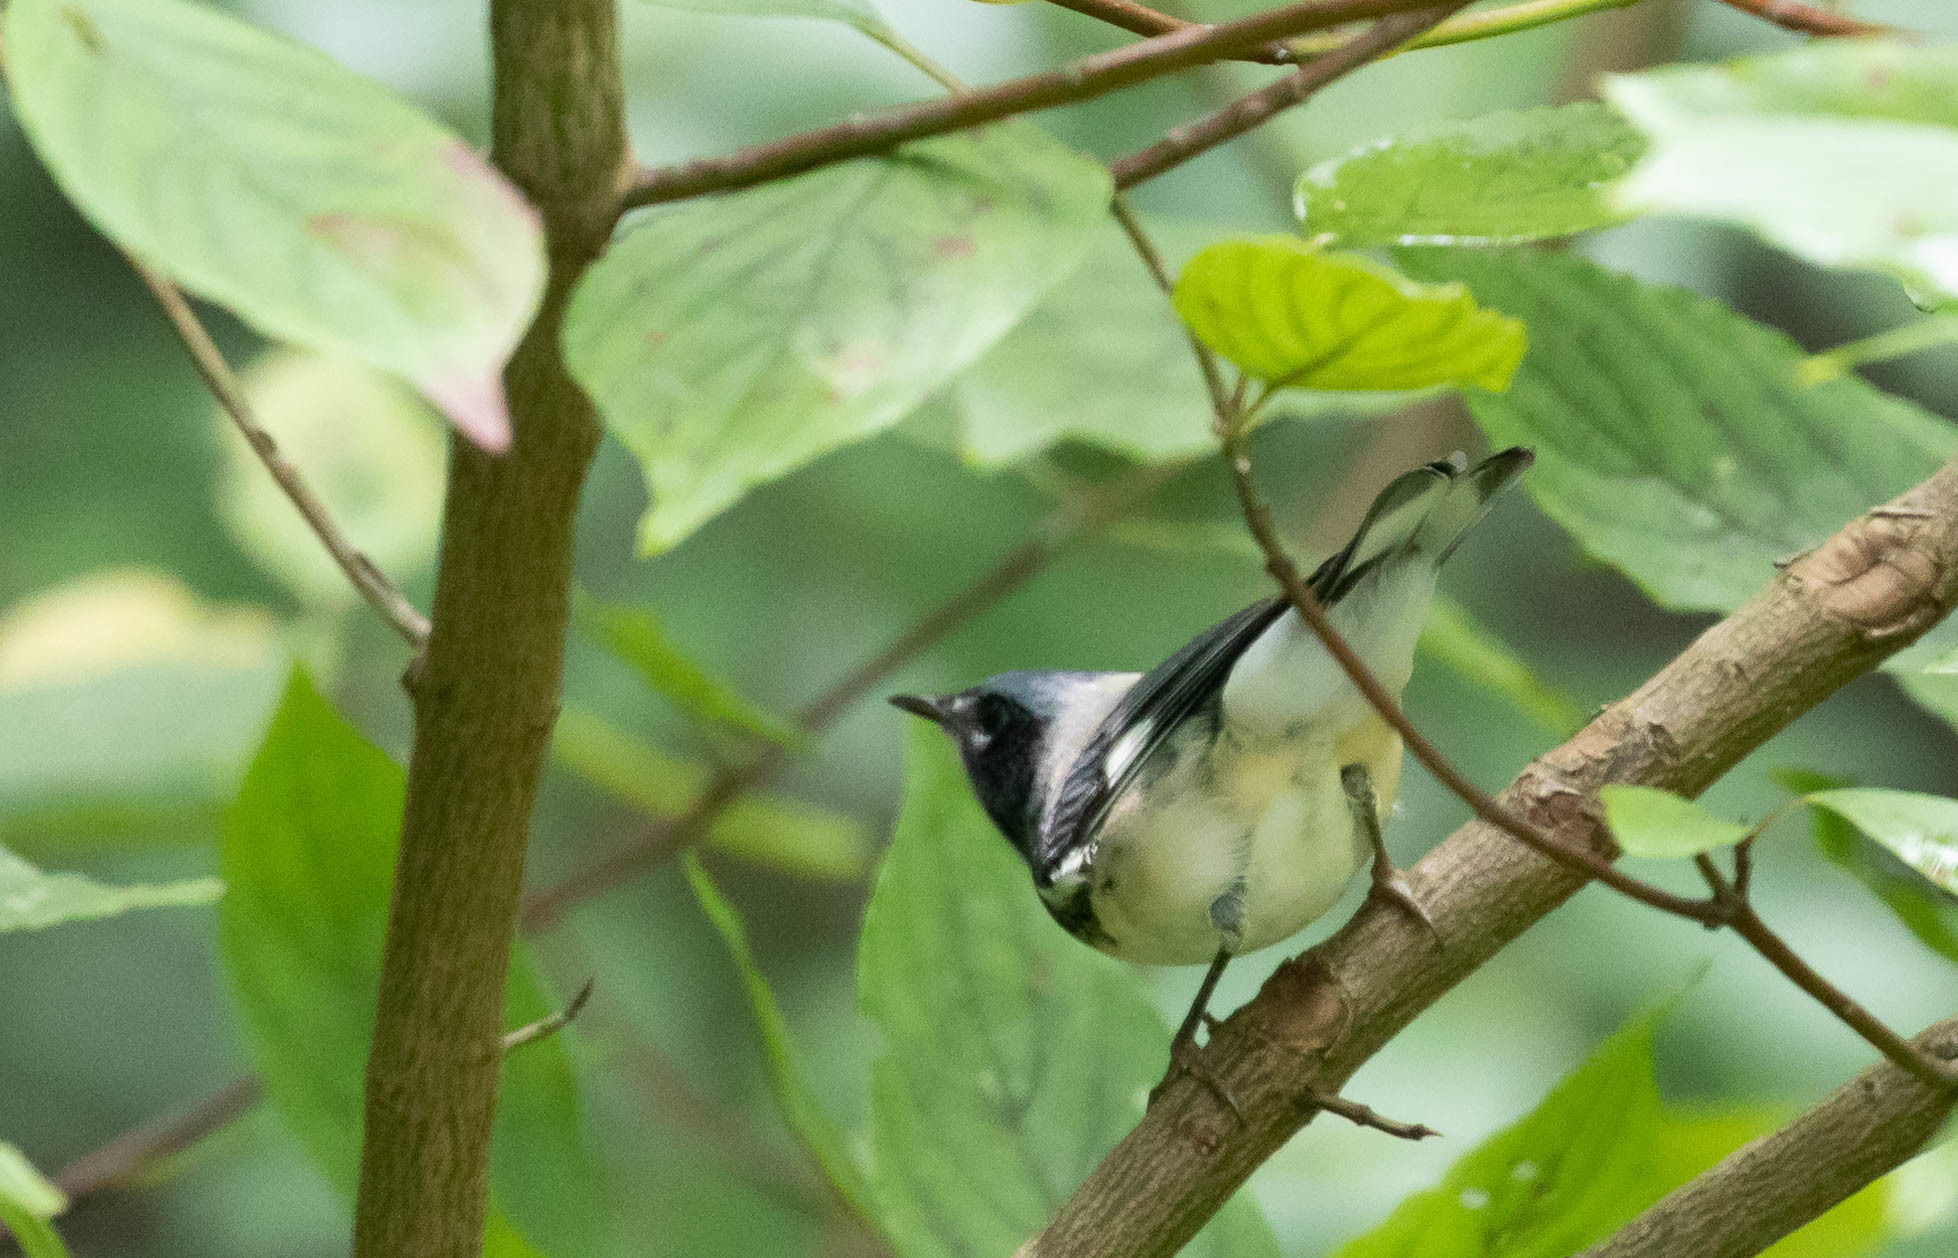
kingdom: Animalia
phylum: Chordata
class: Aves
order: Passeriformes
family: Parulidae
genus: Setophaga
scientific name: Setophaga caerulescens
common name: Black-throated blue warbler
